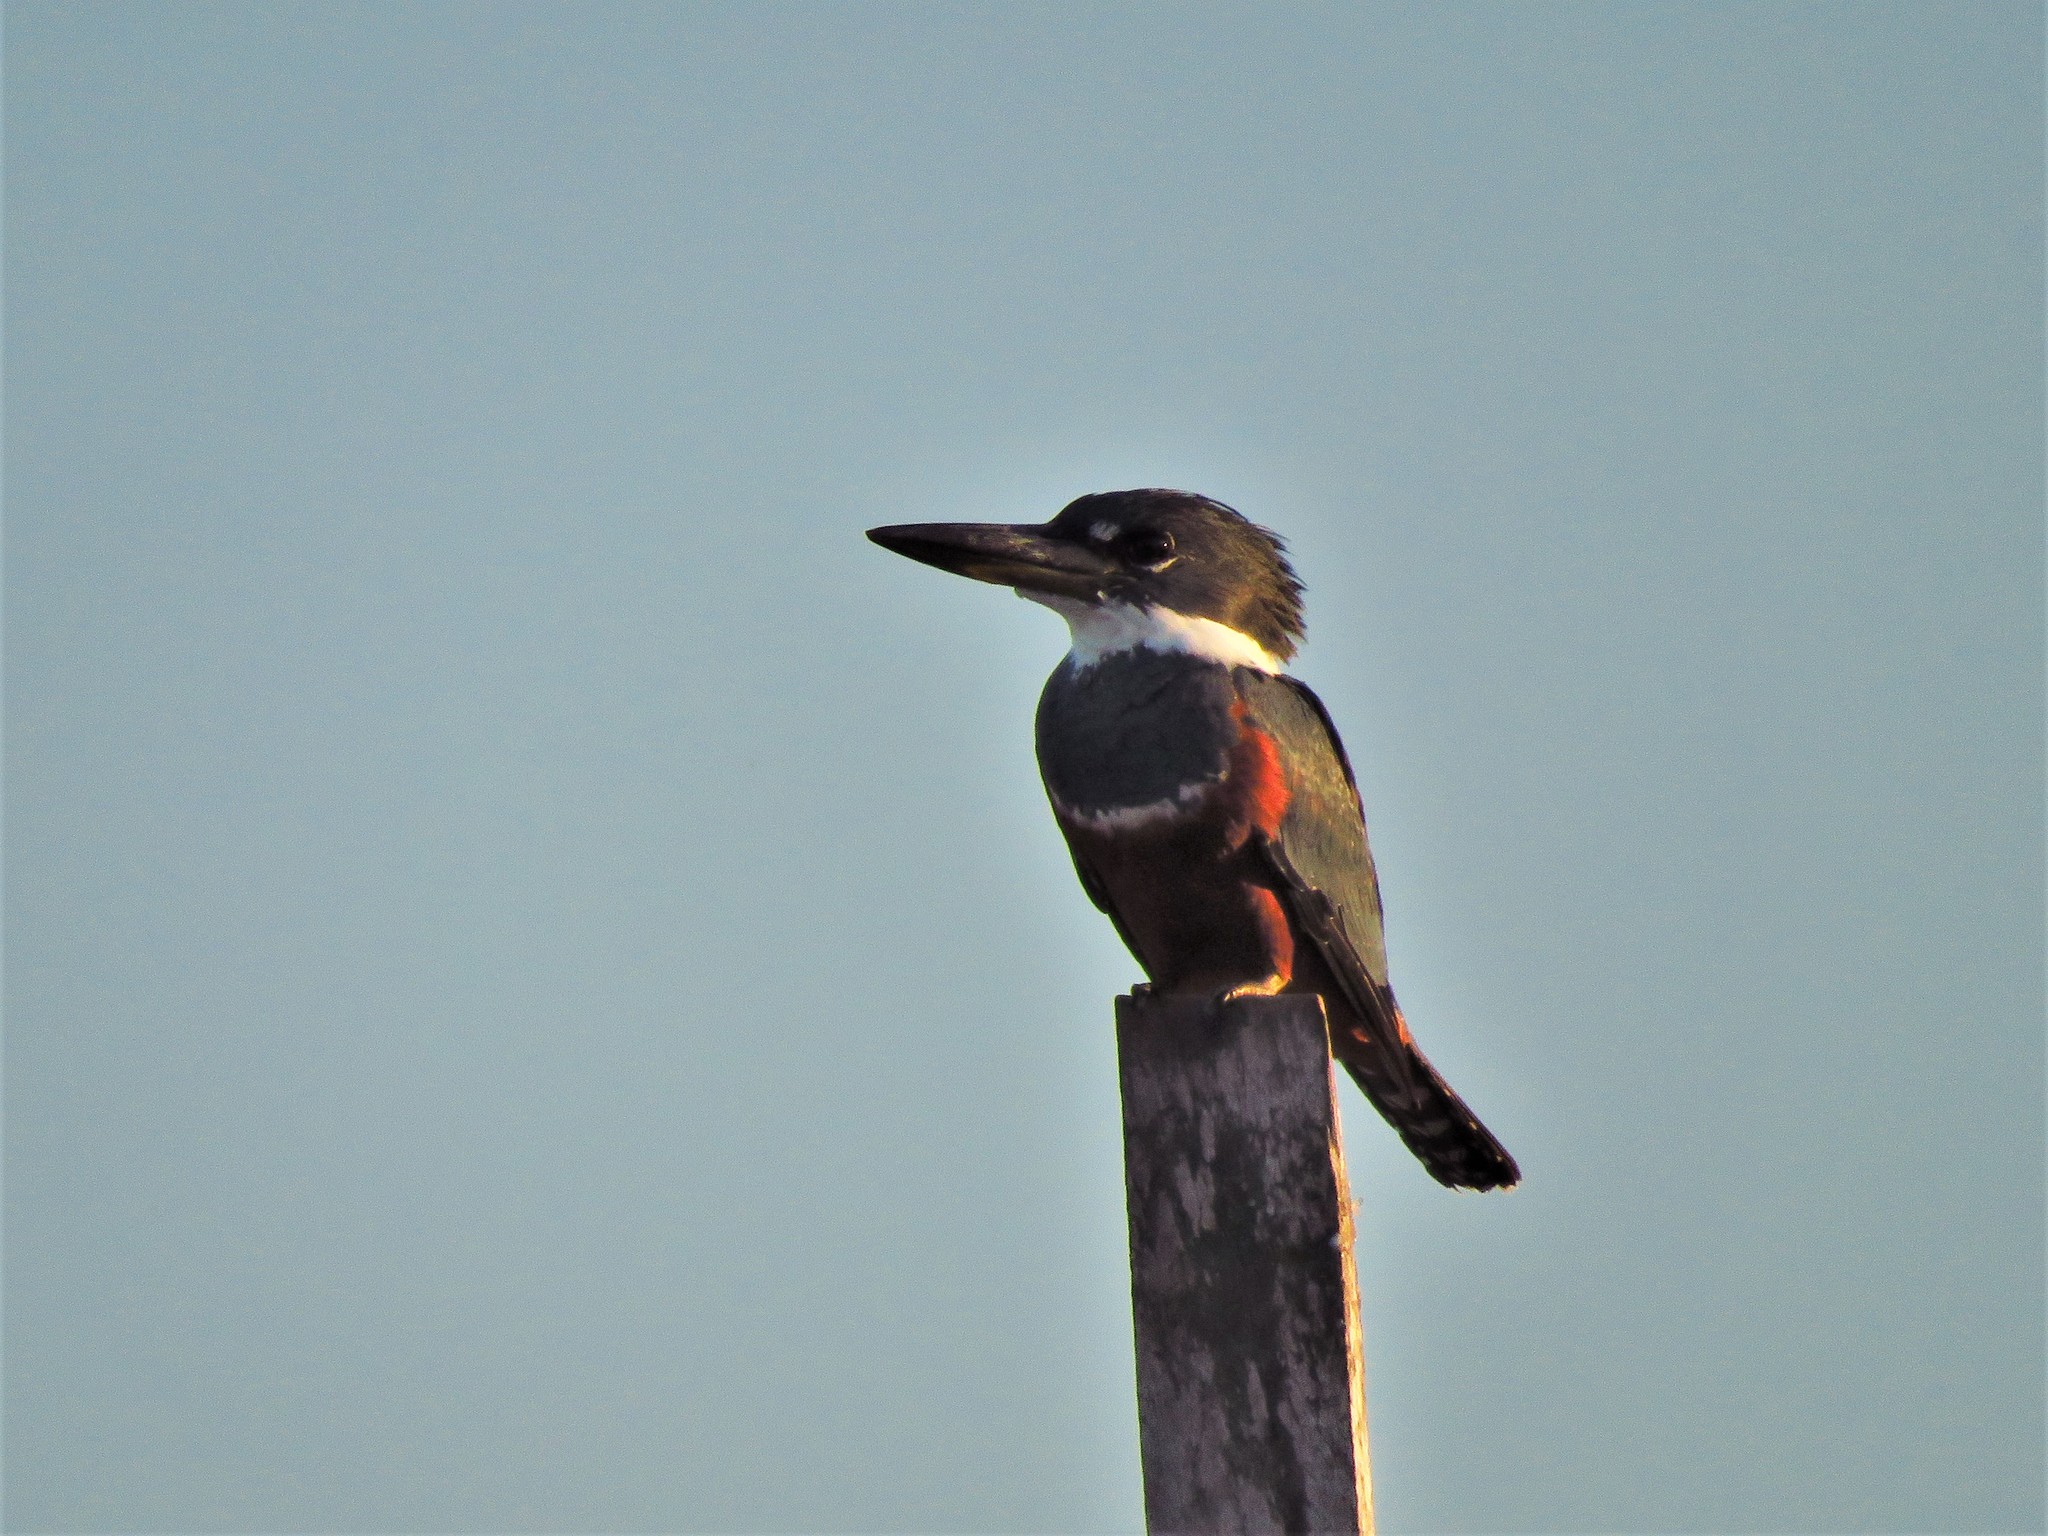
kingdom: Animalia
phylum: Chordata
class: Aves
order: Coraciiformes
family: Alcedinidae
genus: Megaceryle
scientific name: Megaceryle torquata
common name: Ringed kingfisher
